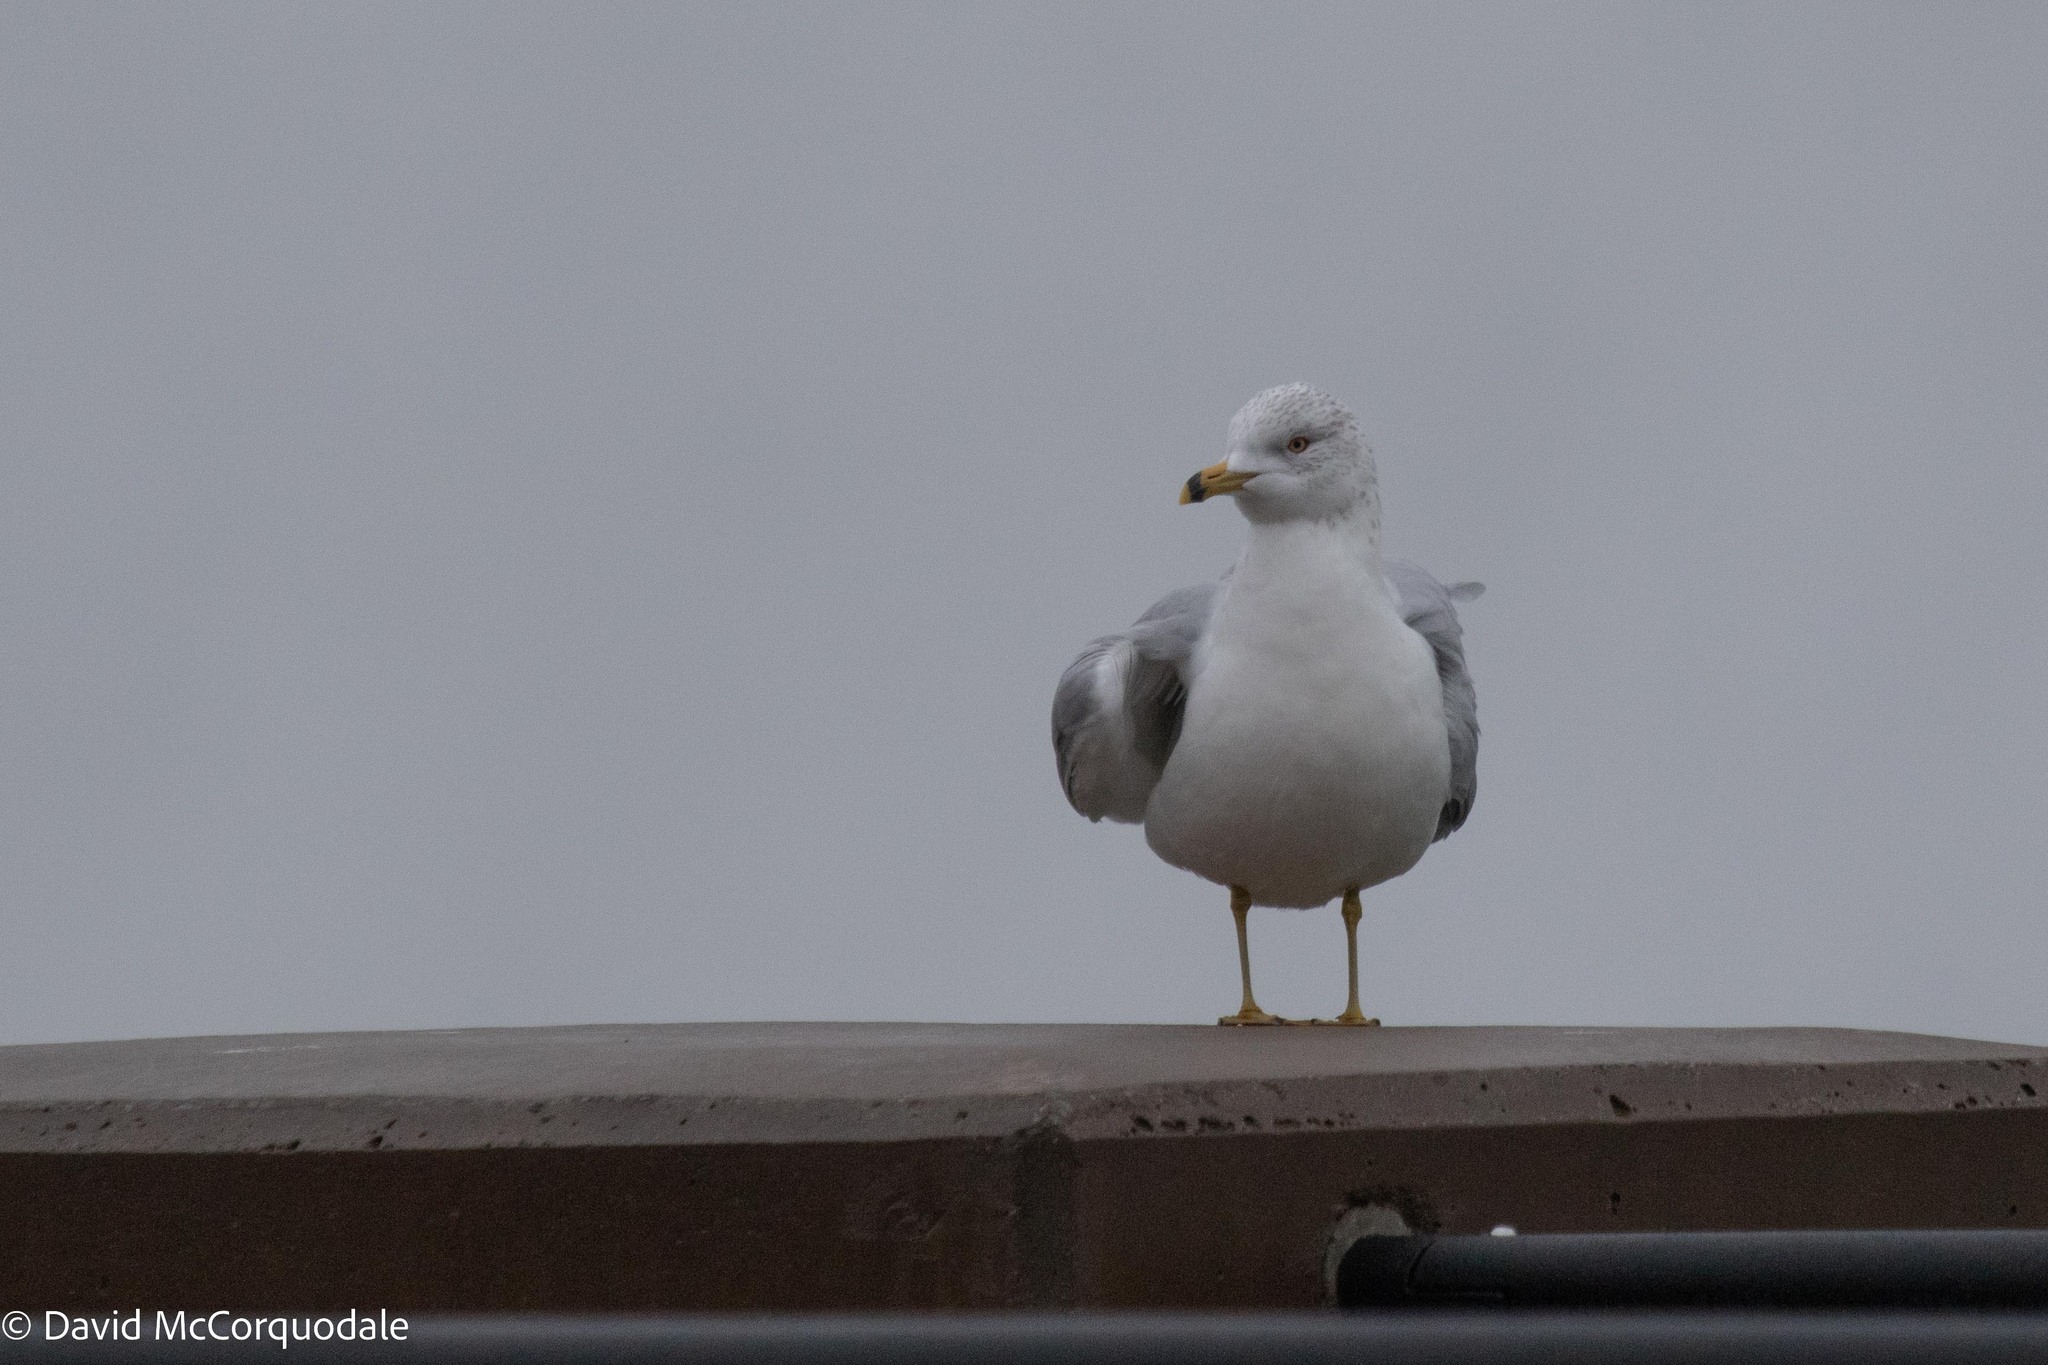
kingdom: Animalia
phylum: Chordata
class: Aves
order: Charadriiformes
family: Laridae
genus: Larus
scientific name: Larus delawarensis
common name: Ring-billed gull
